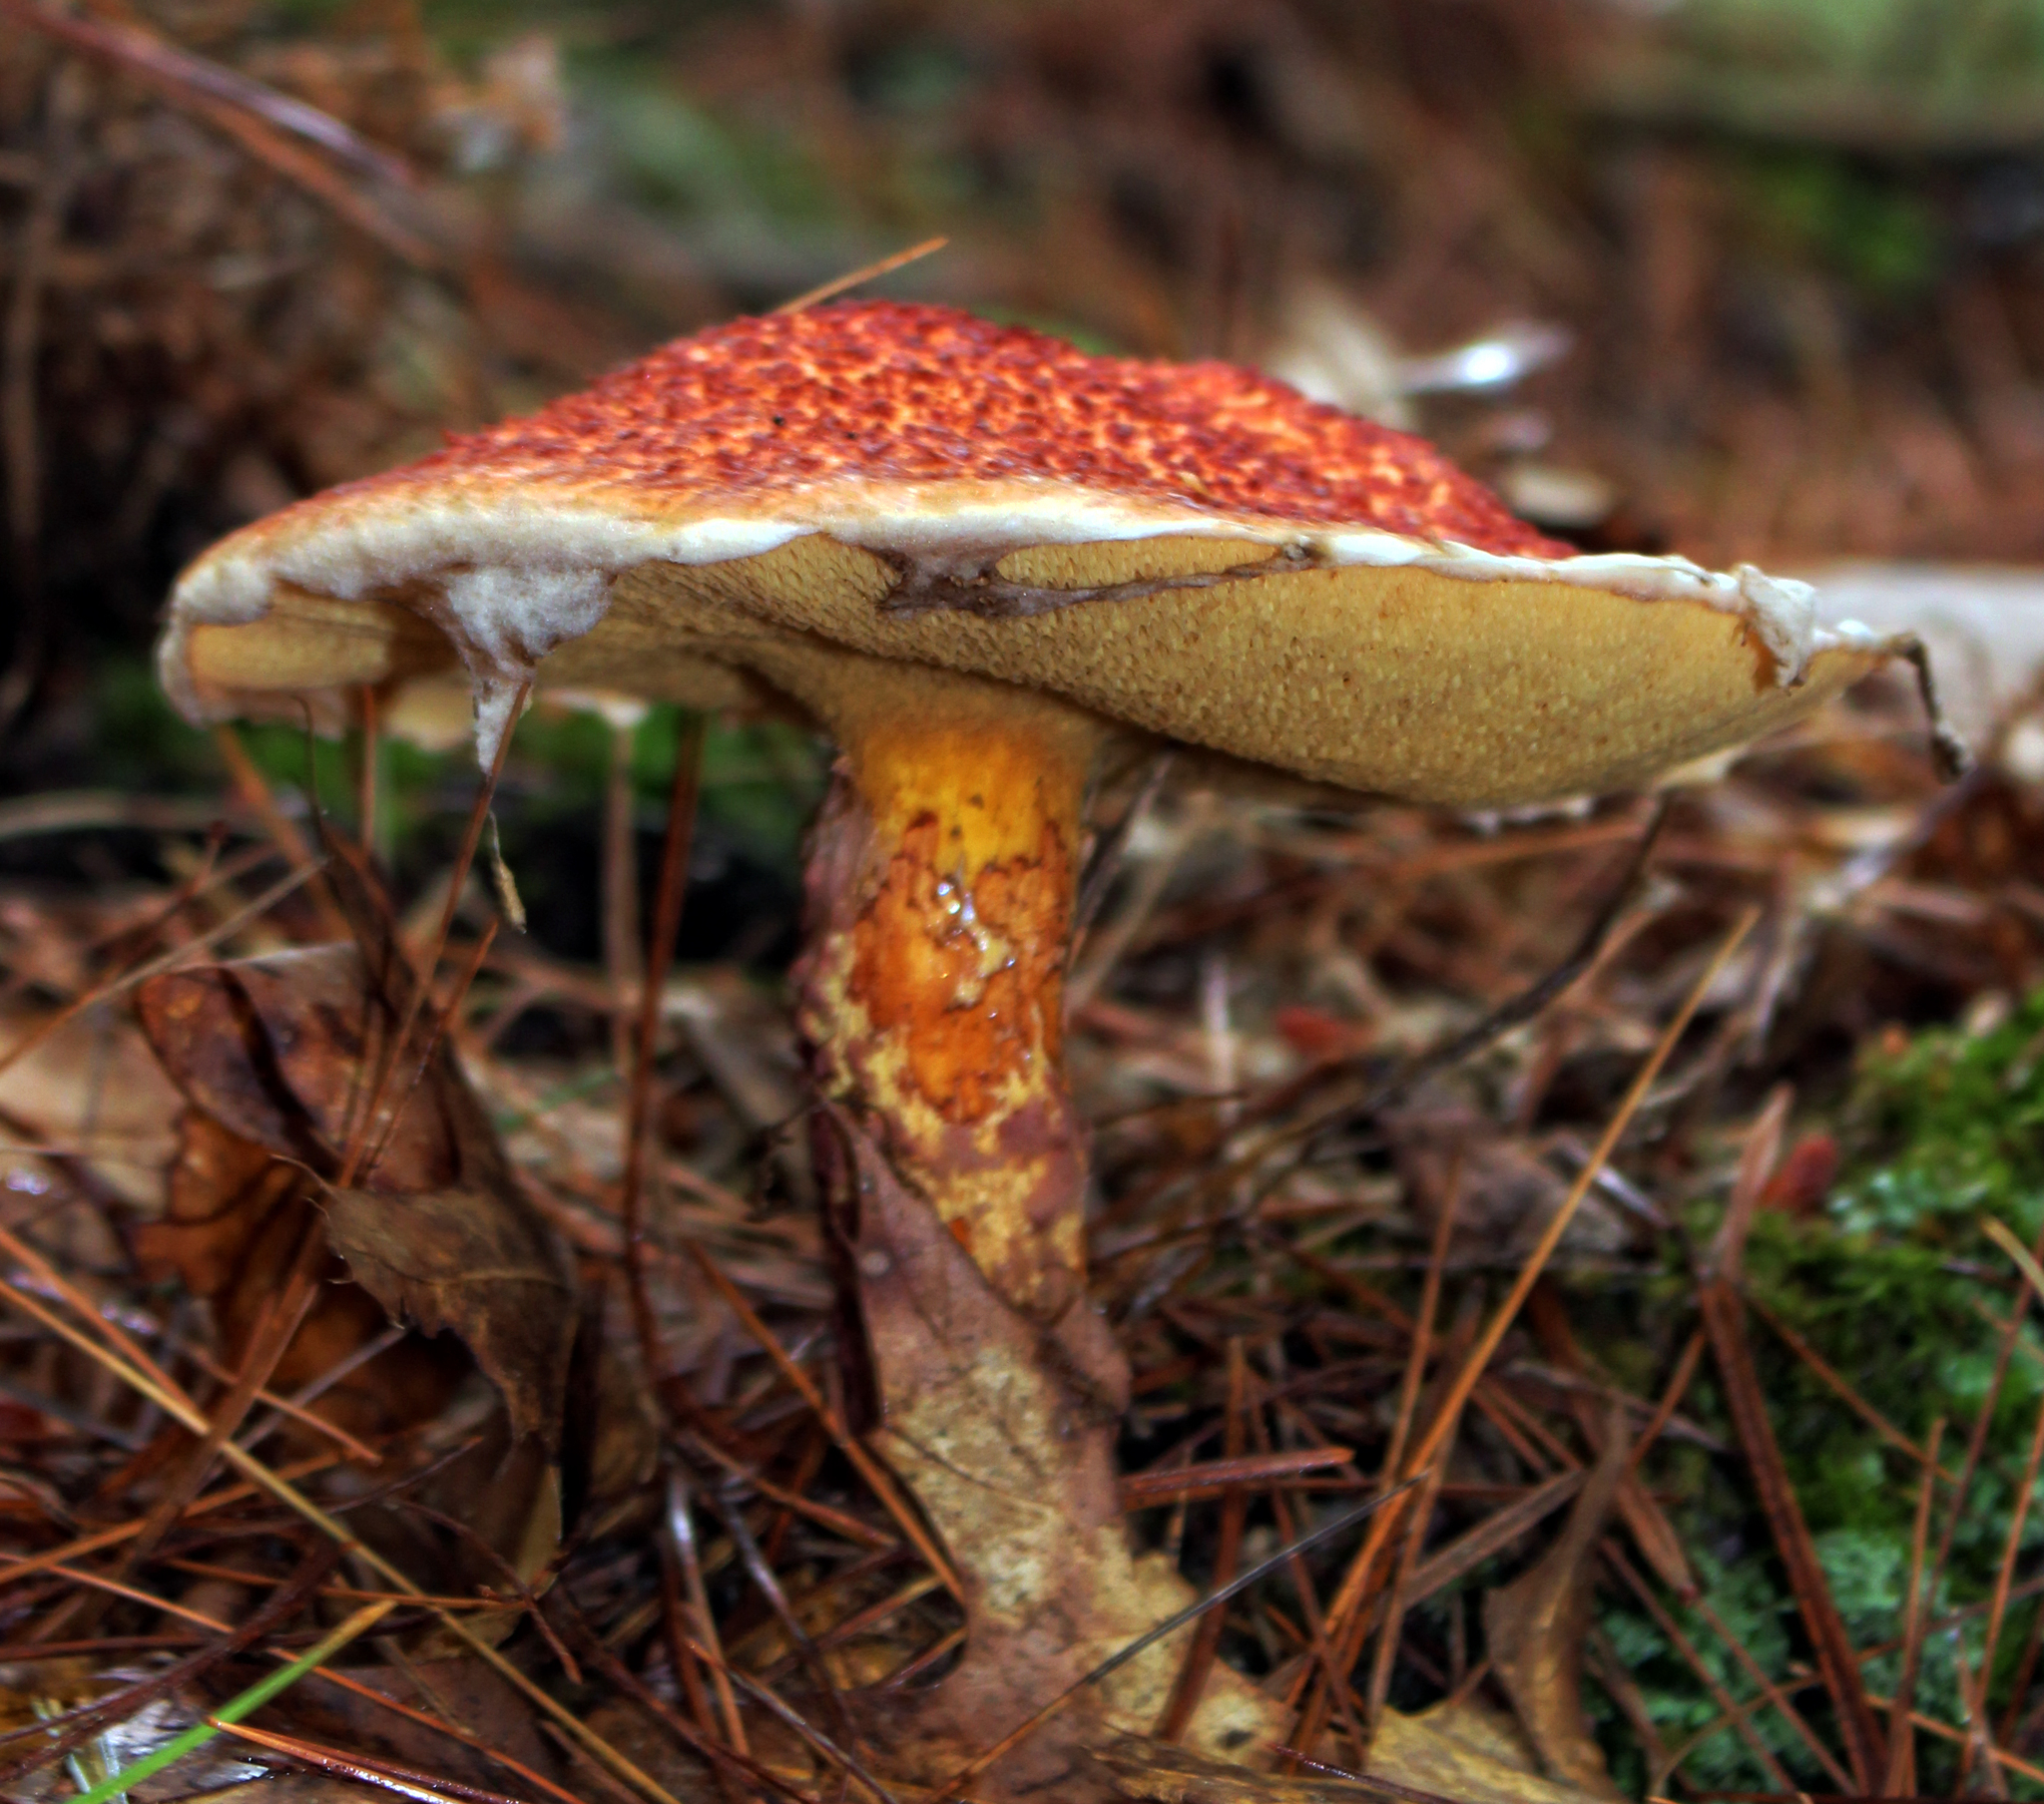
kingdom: Fungi
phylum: Basidiomycota
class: Agaricomycetes
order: Boletales
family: Suillaceae
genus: Suillus
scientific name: Suillus spraguei
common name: Painted suillus
